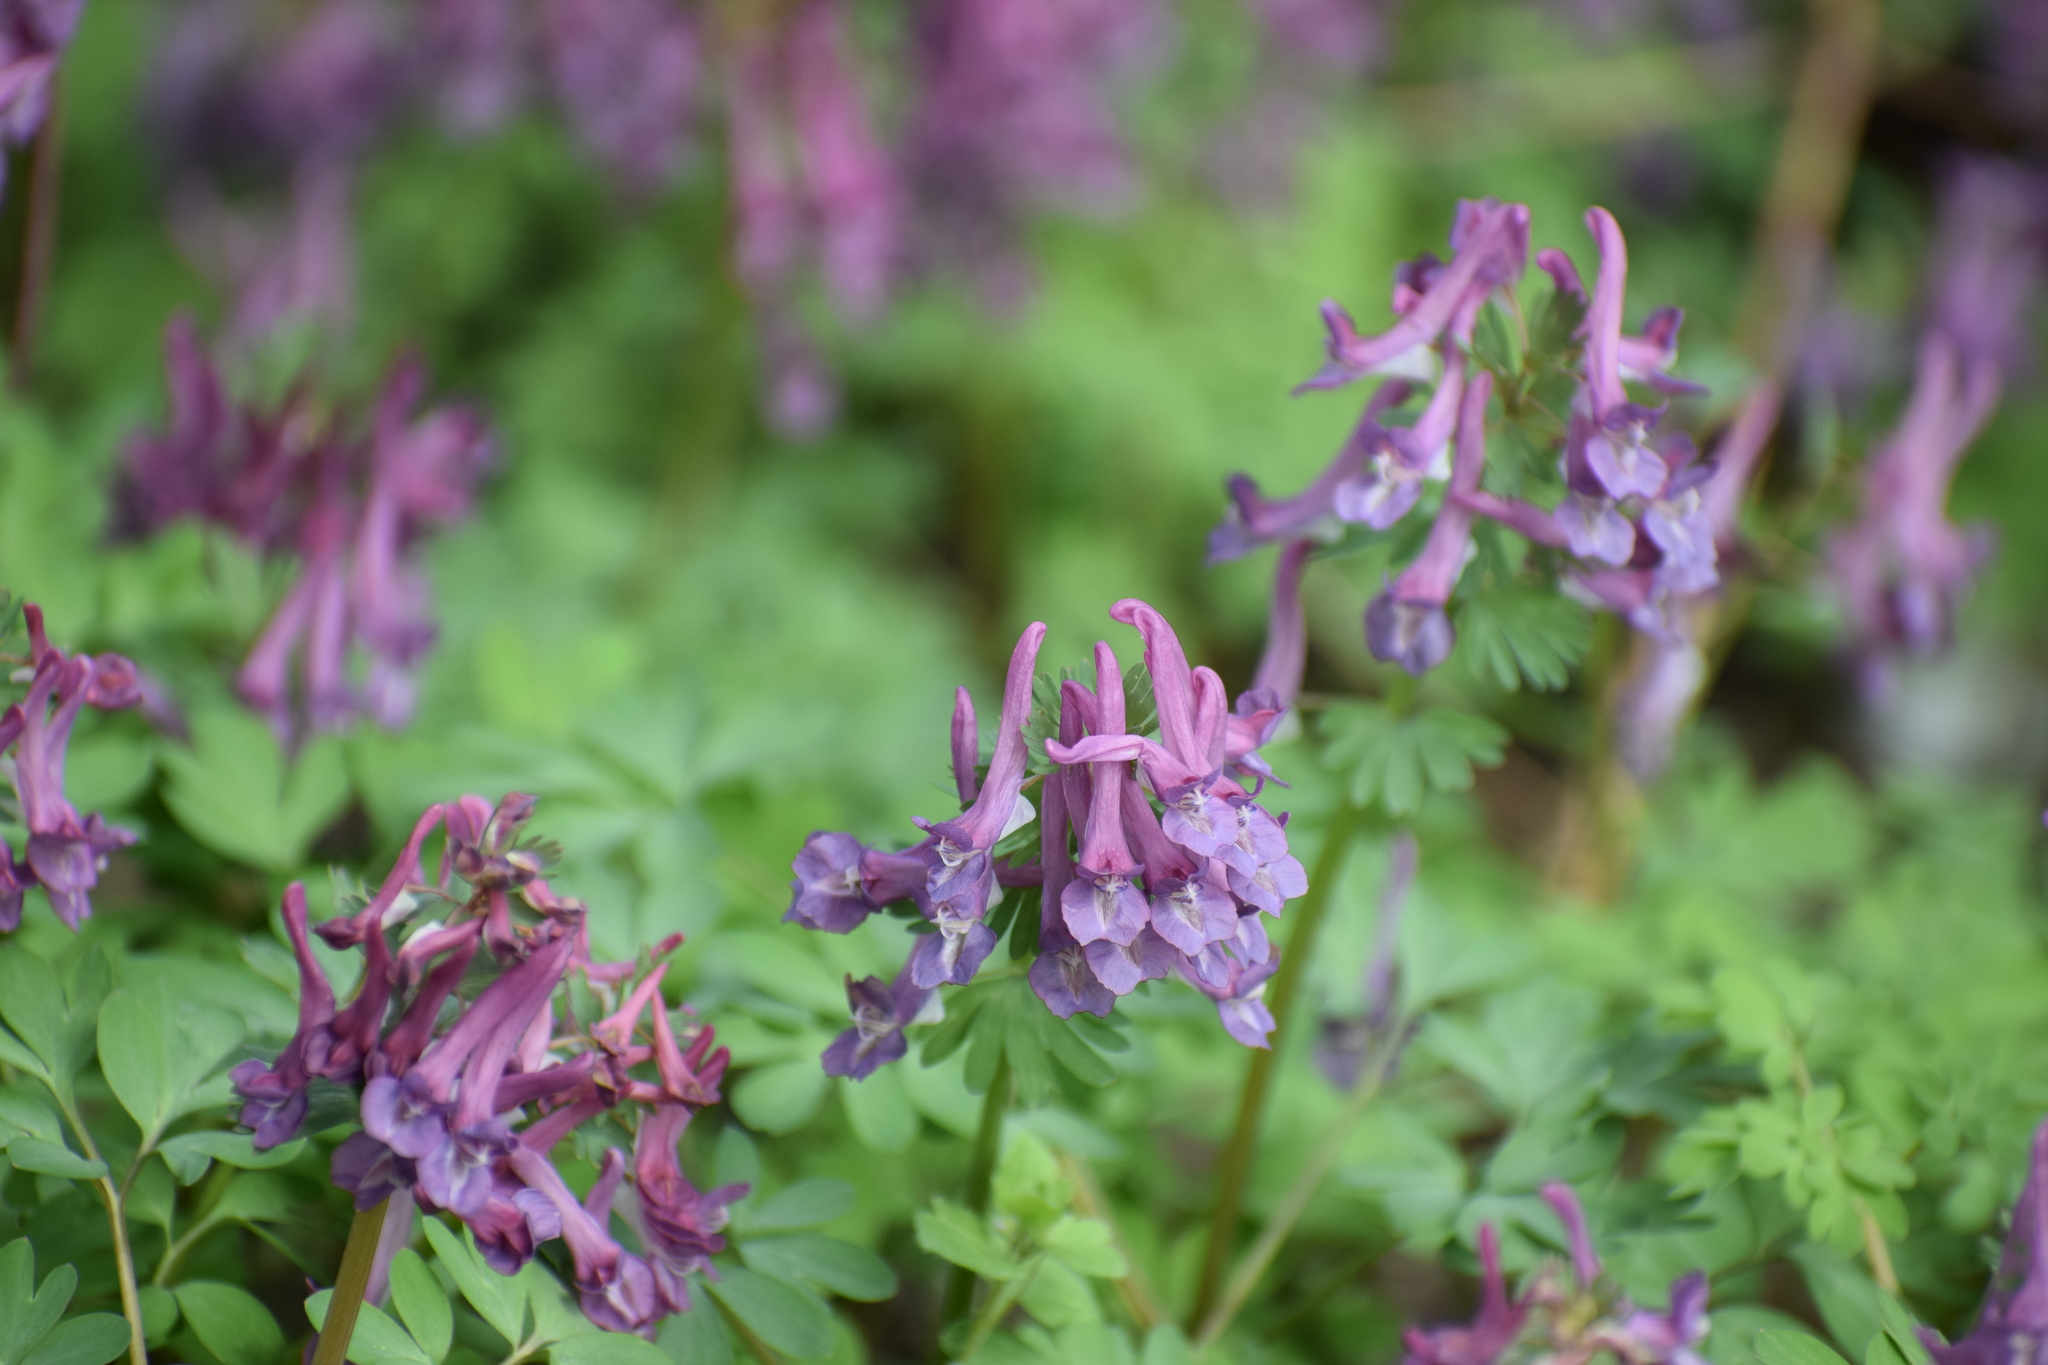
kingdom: Plantae
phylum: Tracheophyta
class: Magnoliopsida
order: Ranunculales
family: Papaveraceae
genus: Corydalis
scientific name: Corydalis solida
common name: Bird-in-a-bush
